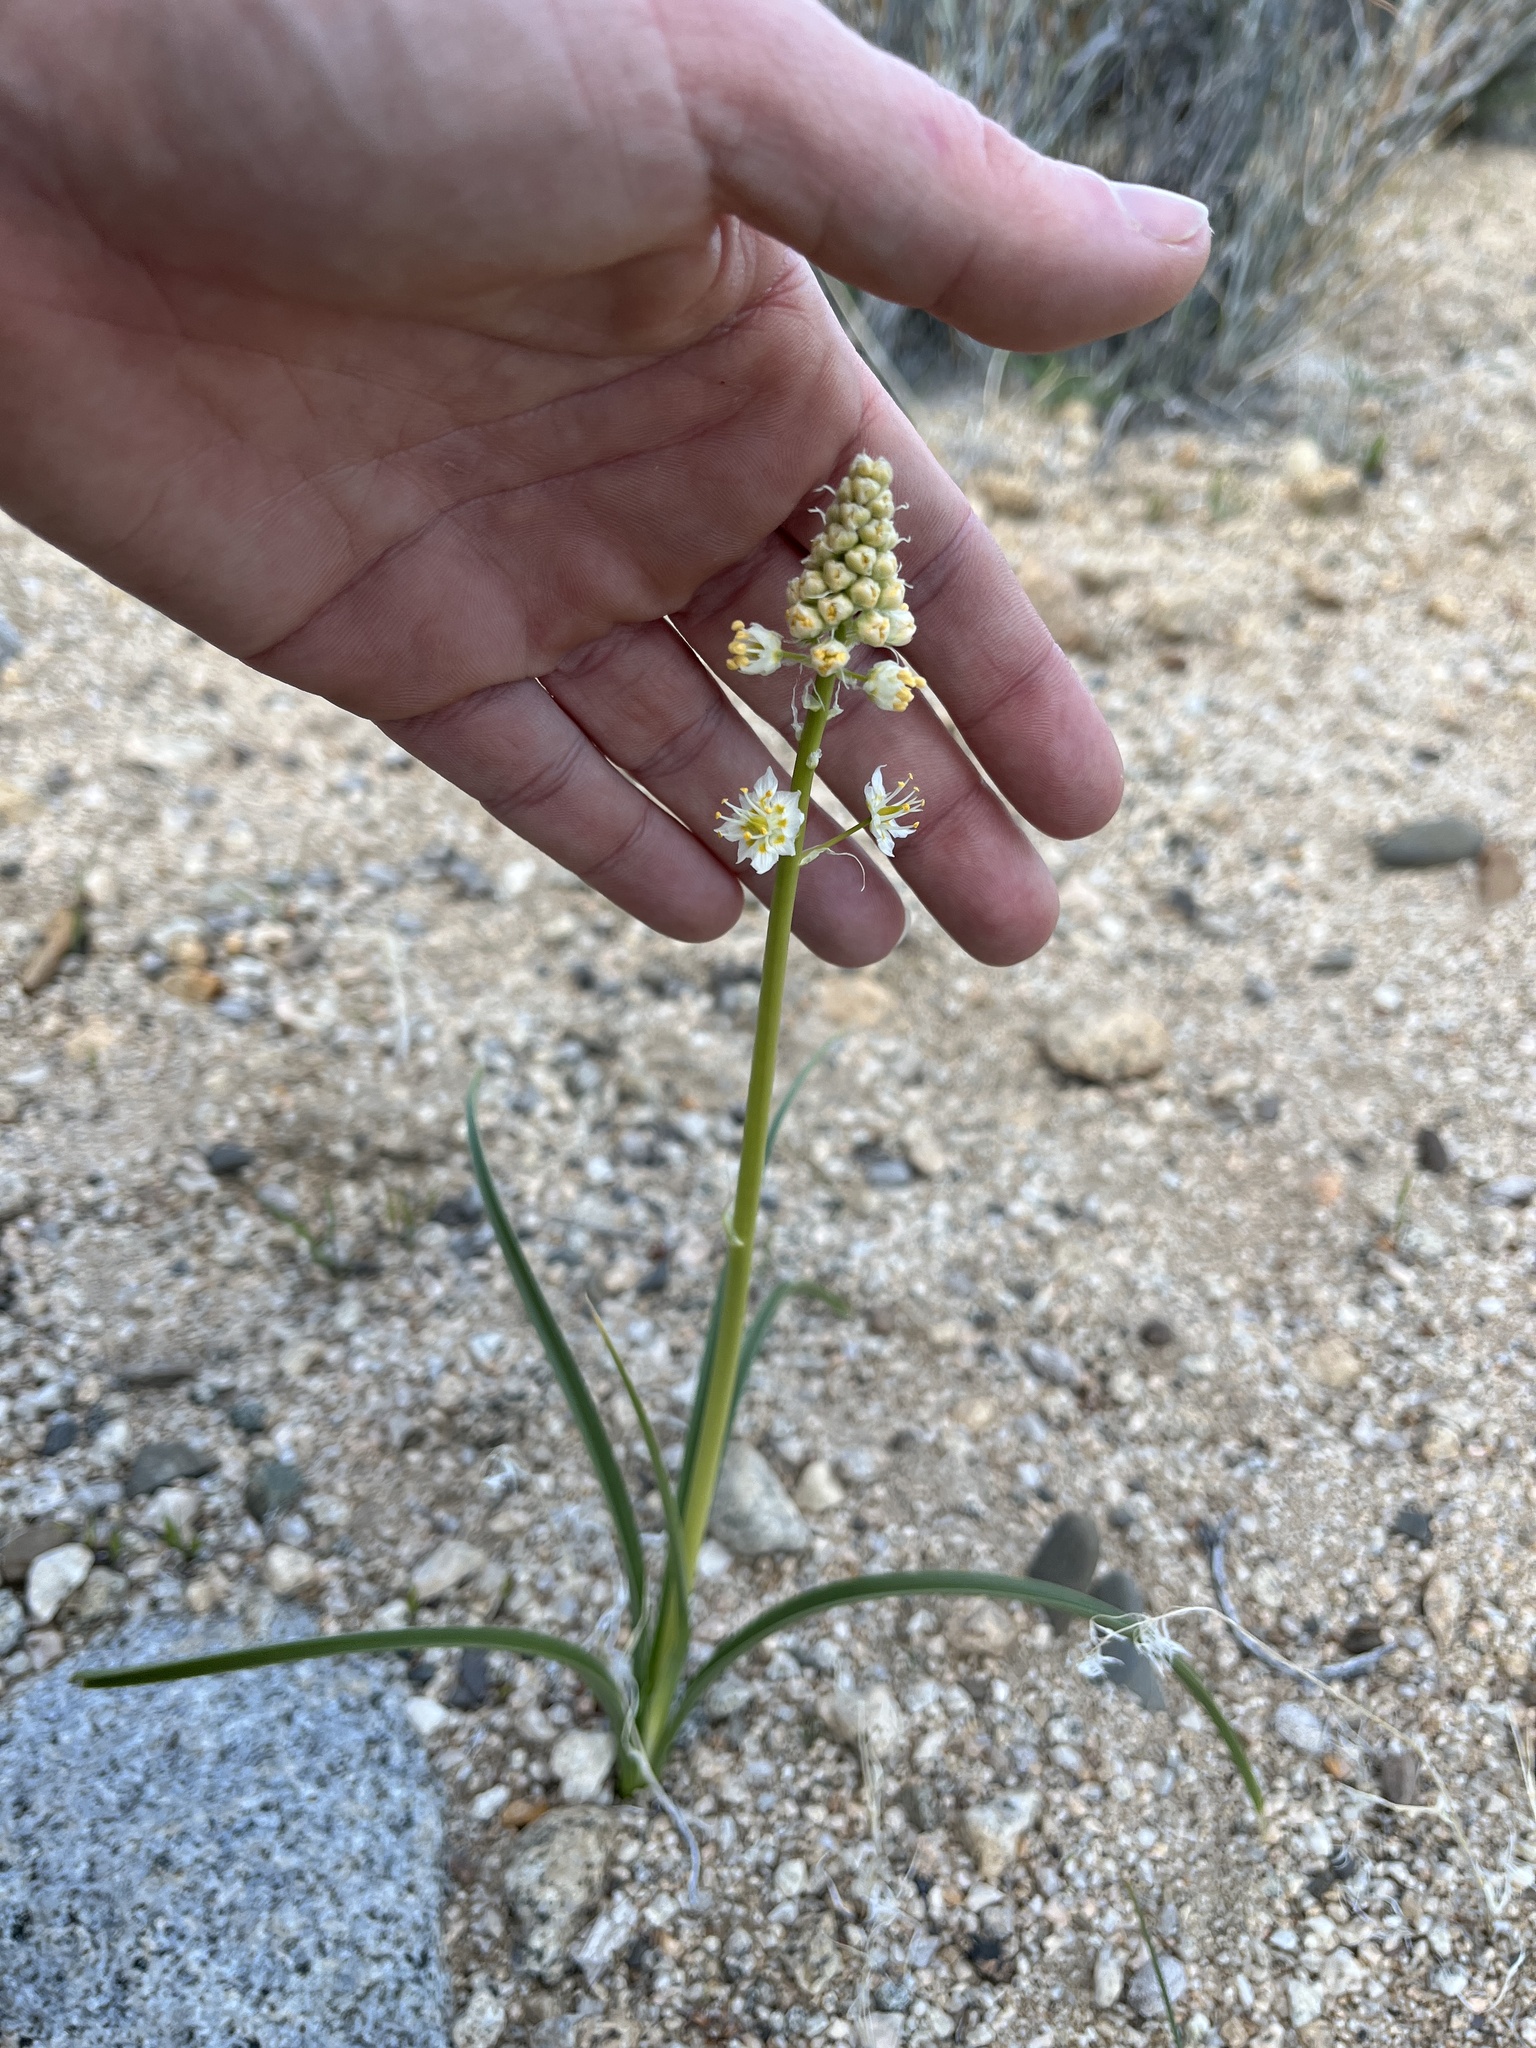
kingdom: Plantae
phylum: Tracheophyta
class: Liliopsida
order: Liliales
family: Melanthiaceae
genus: Toxicoscordion
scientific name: Toxicoscordion paniculatum
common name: Foothill death camas
